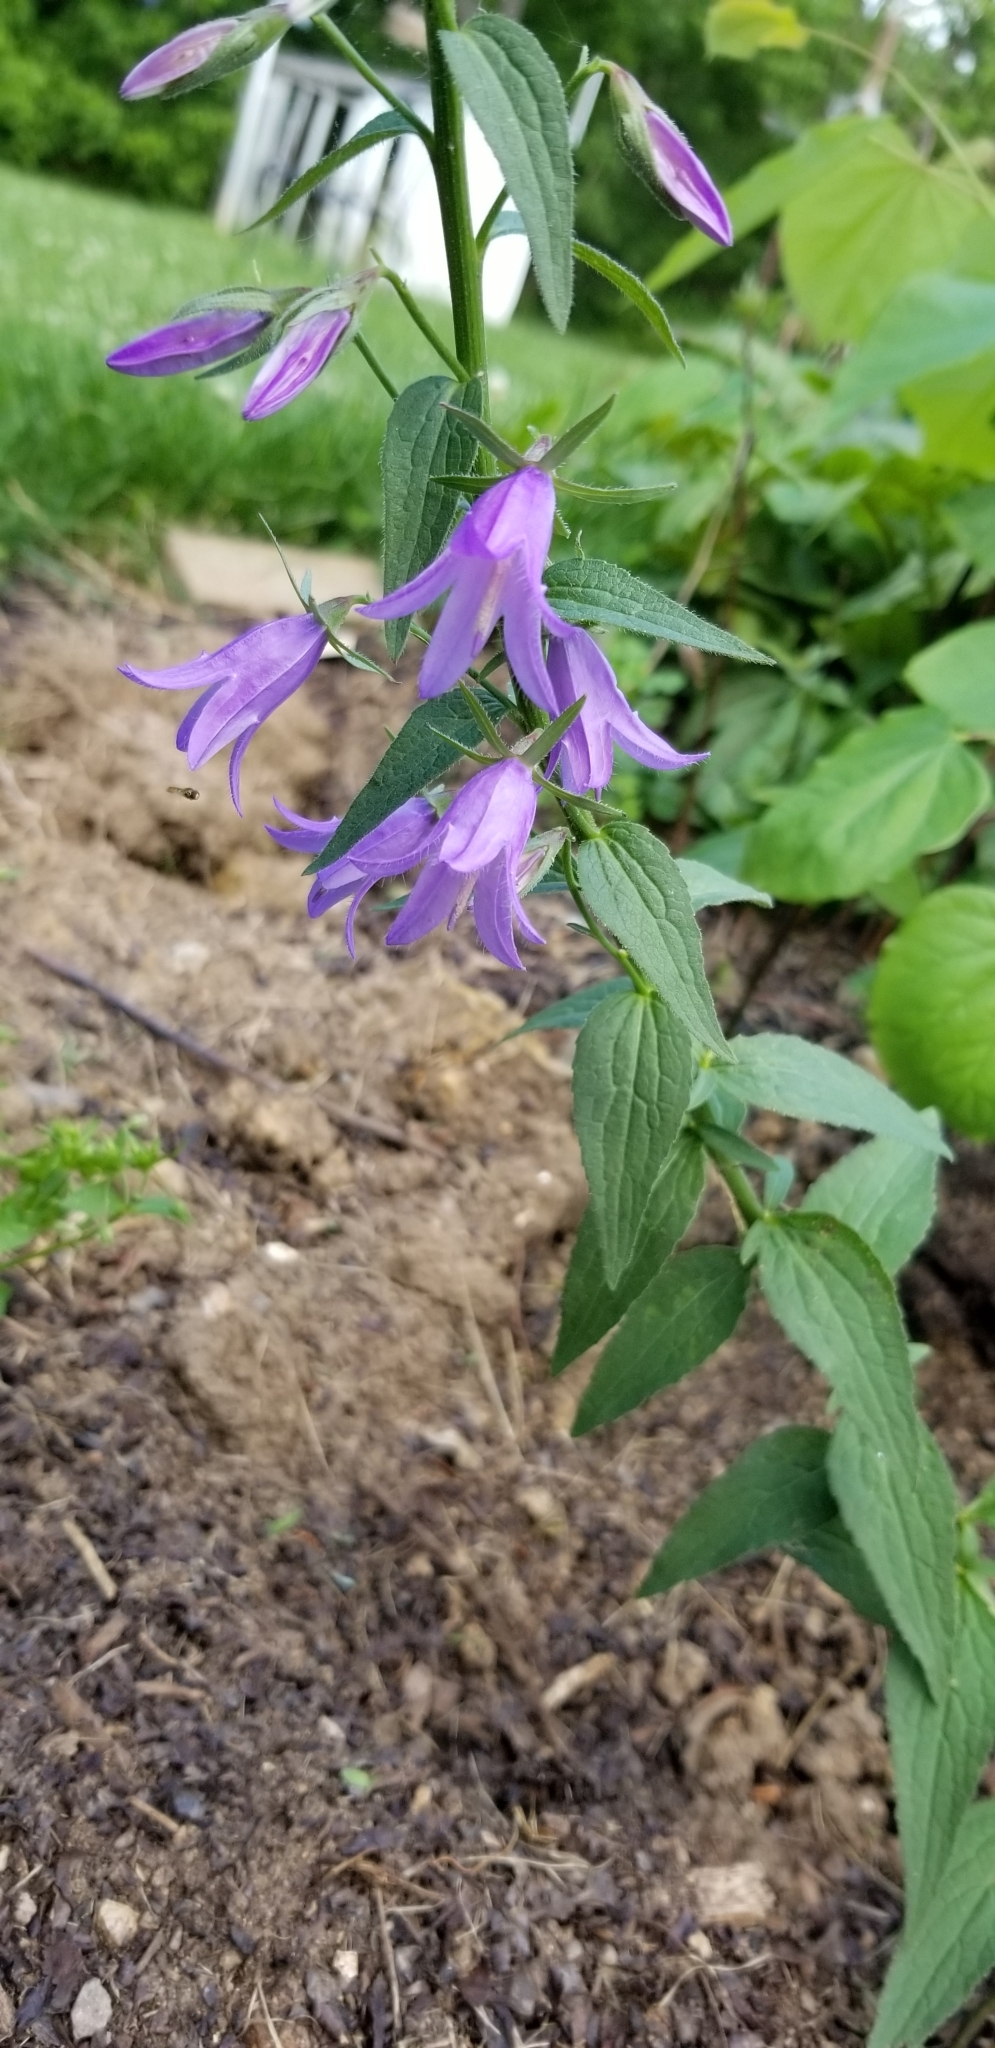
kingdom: Plantae
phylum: Tracheophyta
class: Magnoliopsida
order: Asterales
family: Campanulaceae
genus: Campanula
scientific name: Campanula rapunculoides
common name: Creeping bellflower
